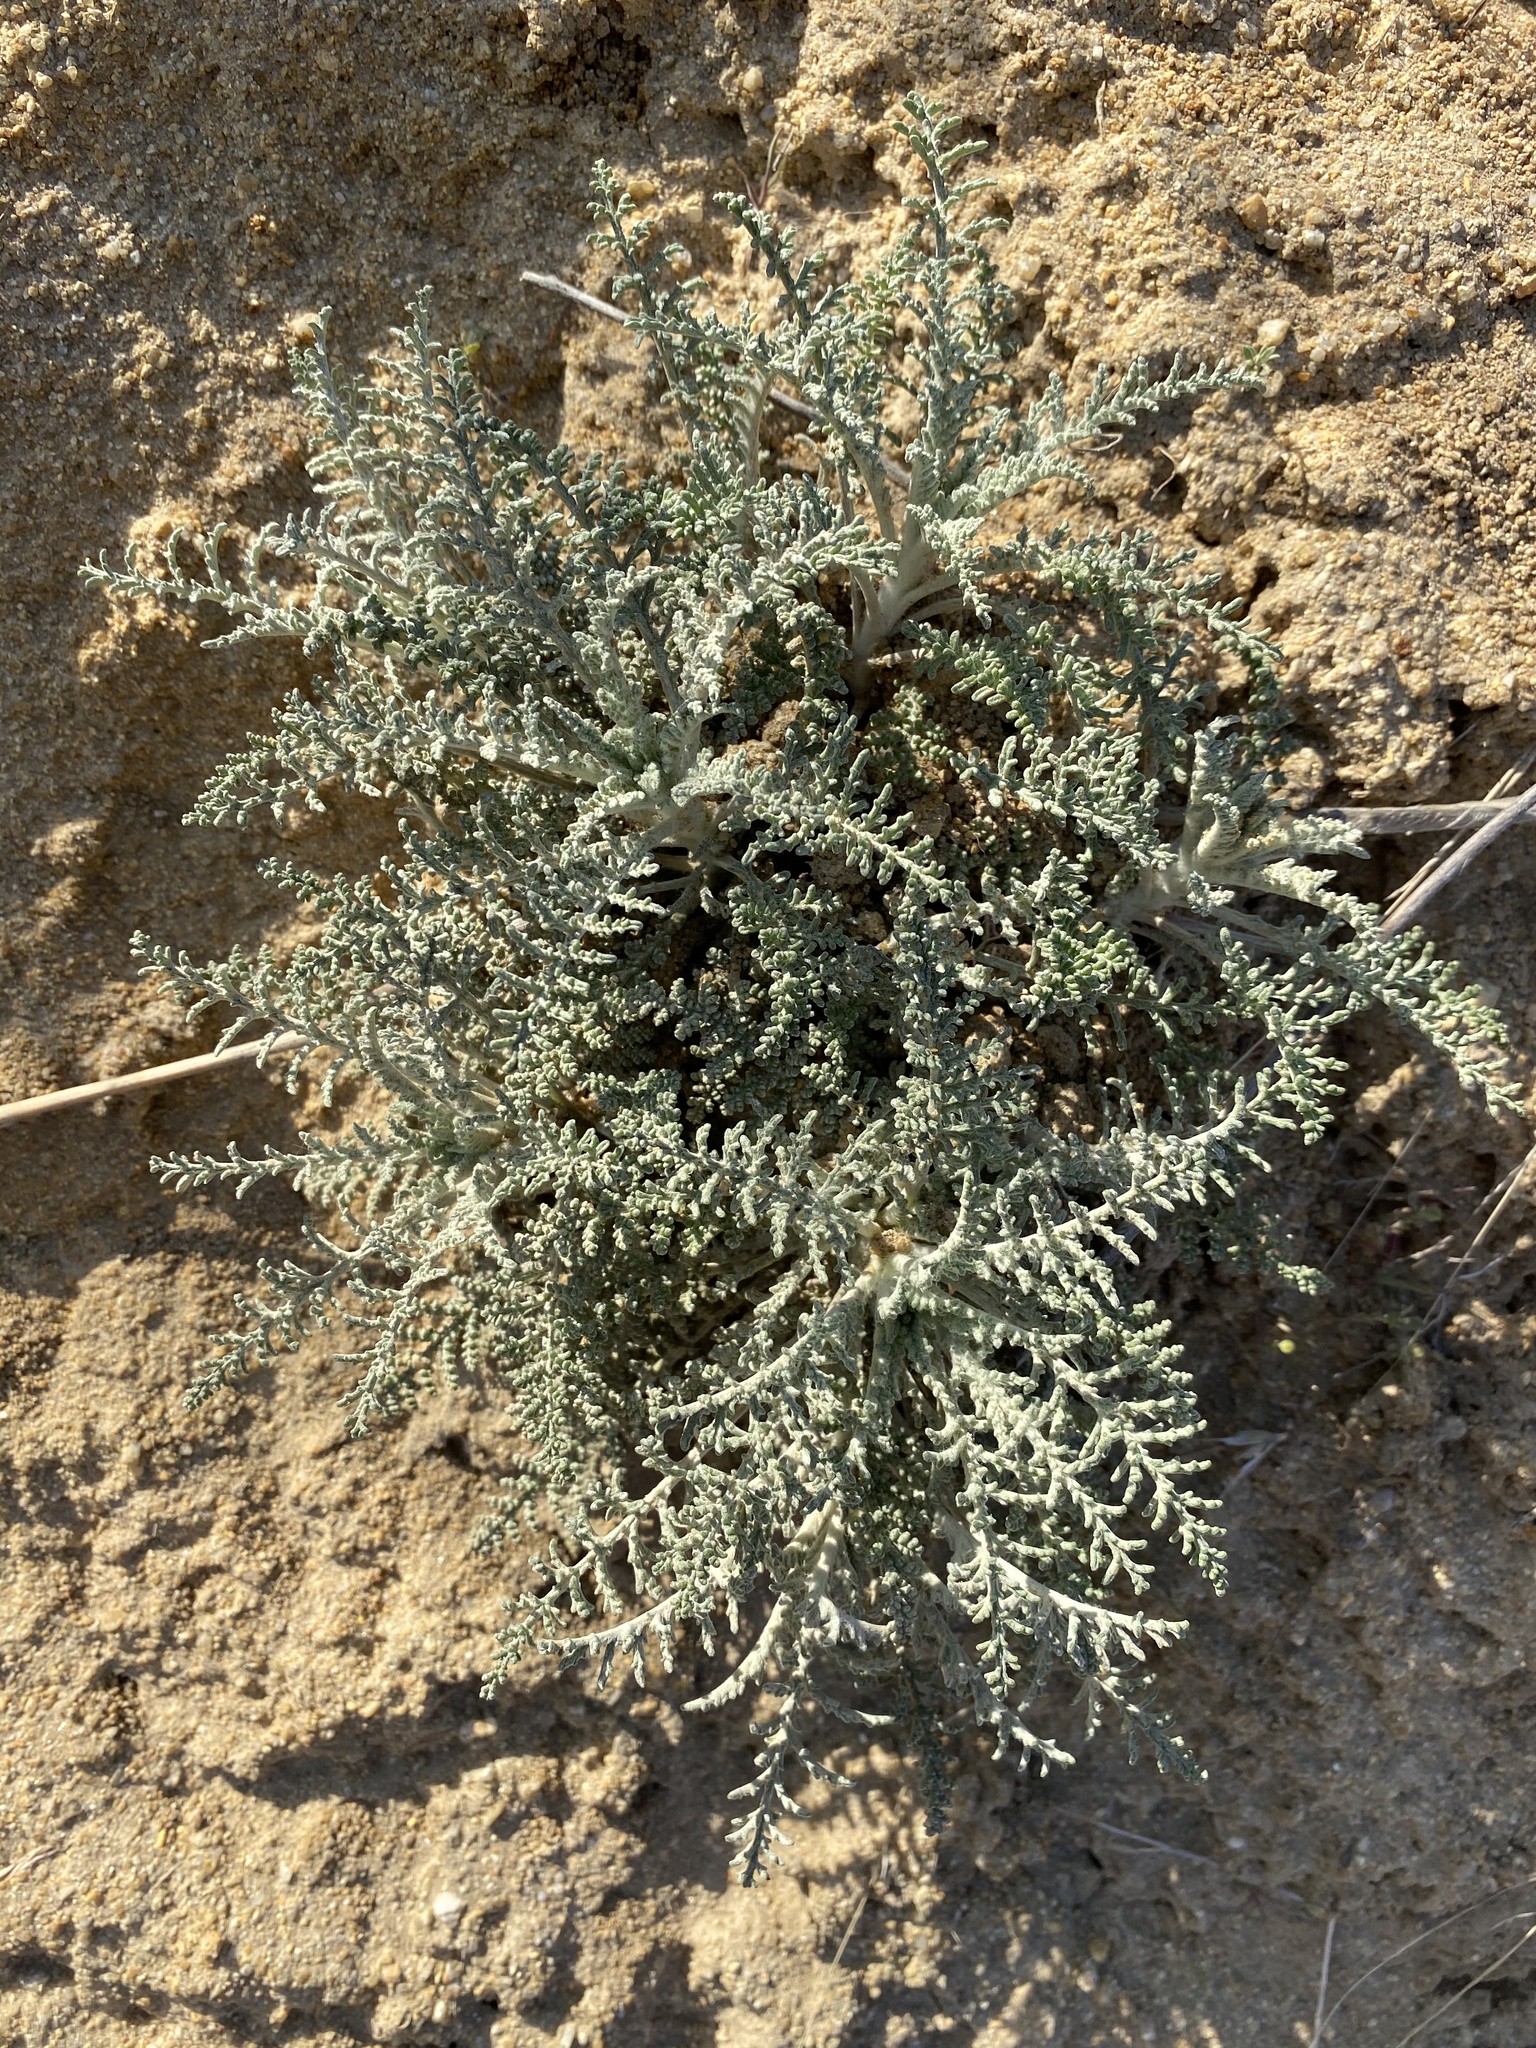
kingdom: Plantae
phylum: Tracheophyta
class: Magnoliopsida
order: Asterales
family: Asteraceae
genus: Chaenactis
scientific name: Chaenactis douglasii
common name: Hoary pincushion
